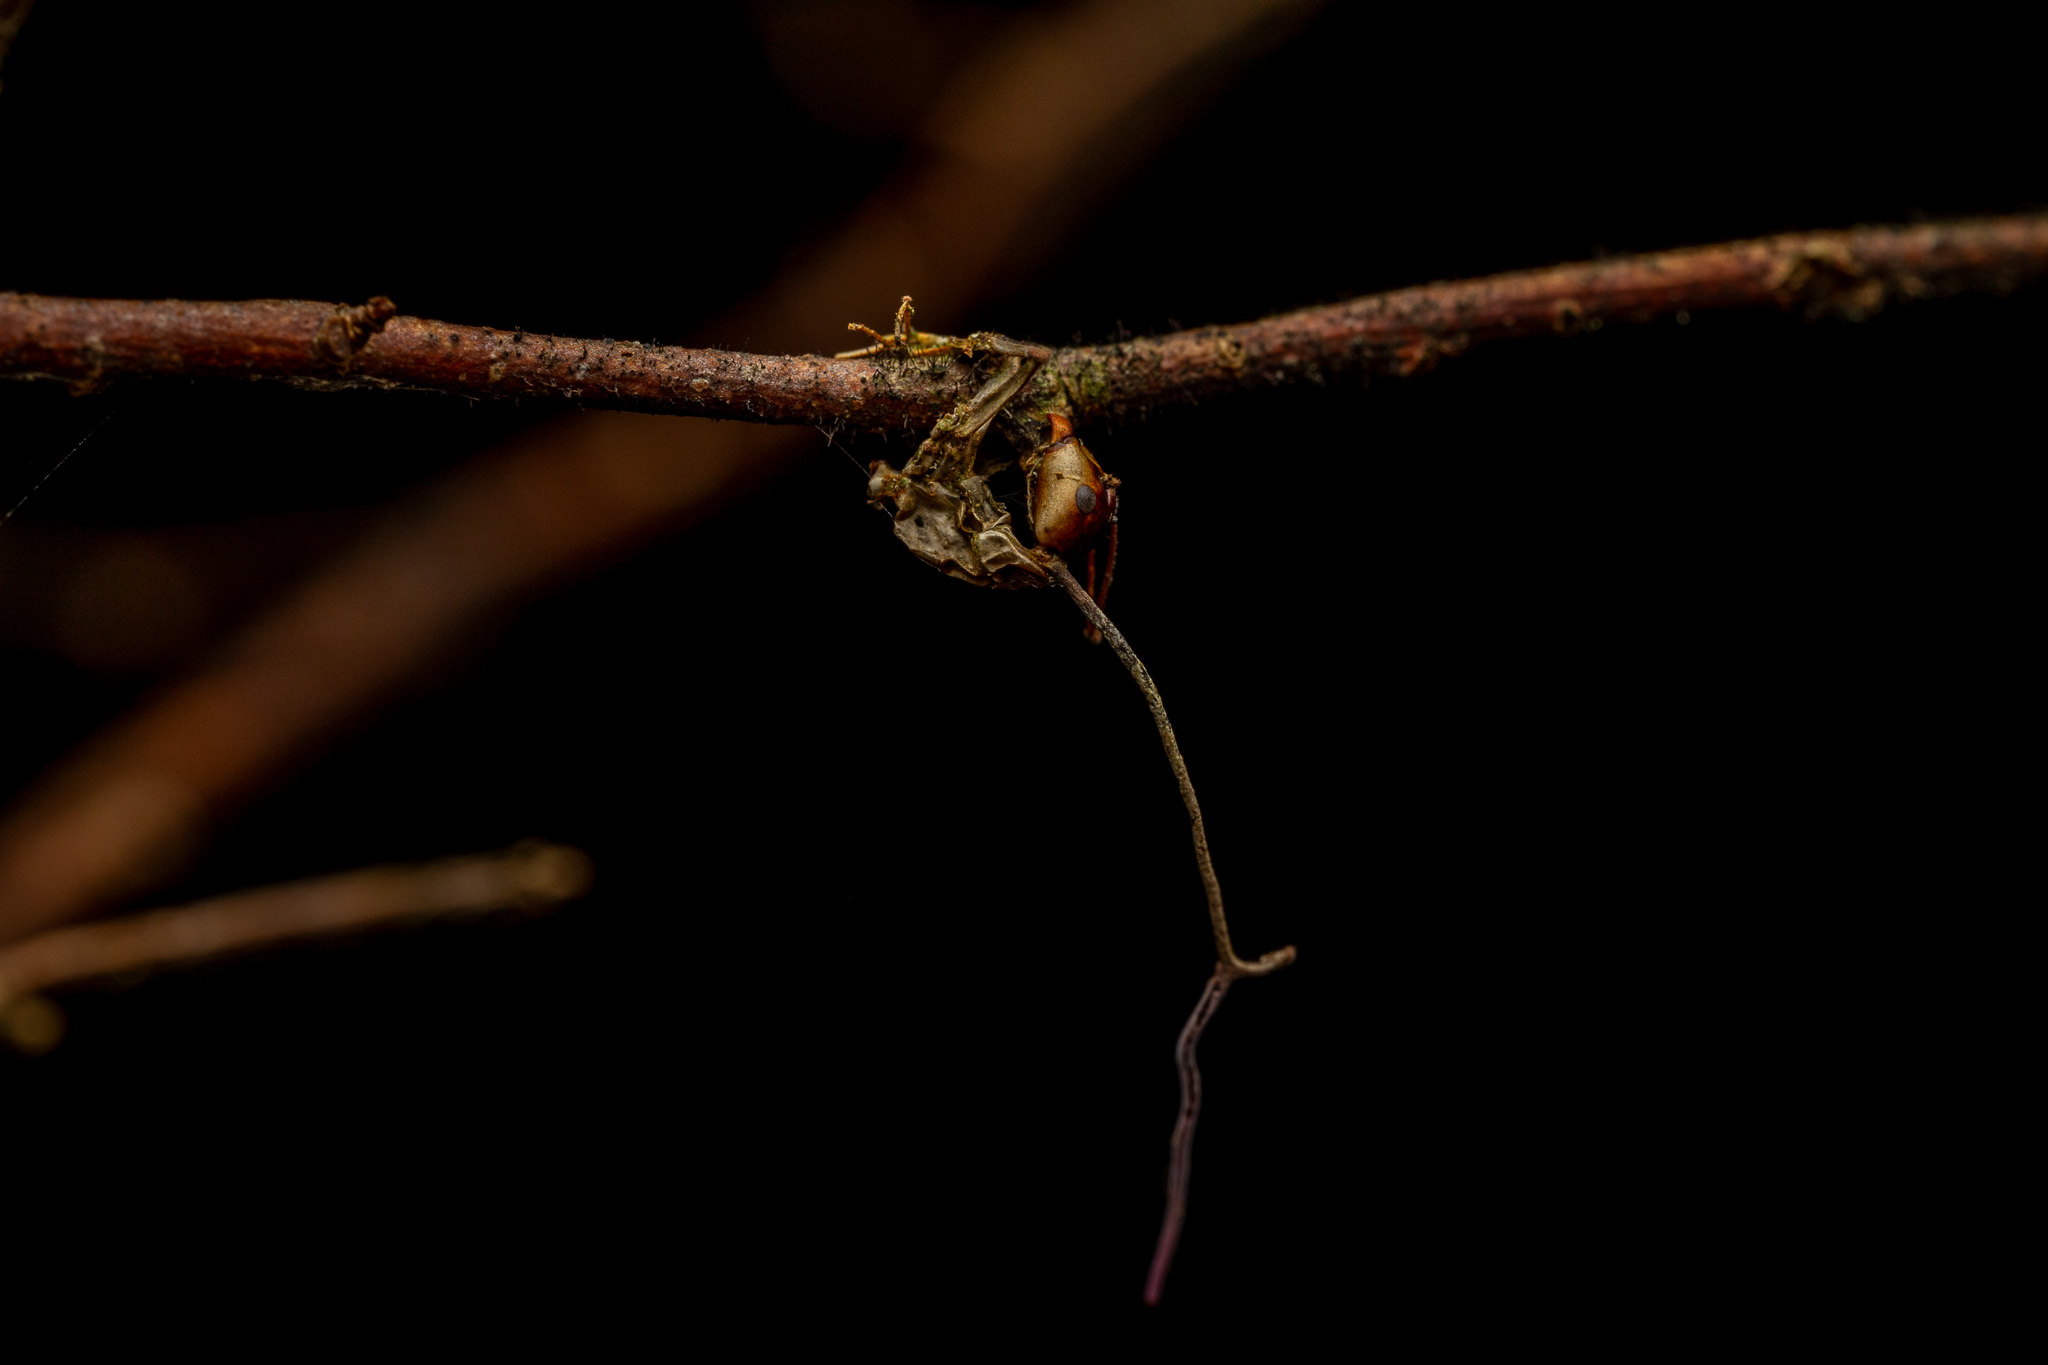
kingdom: Fungi
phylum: Ascomycota
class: Sordariomycetes
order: Hypocreales
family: Ophiocordycipitaceae
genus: Ophiocordyceps
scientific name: Ophiocordyceps kimflemingiae
